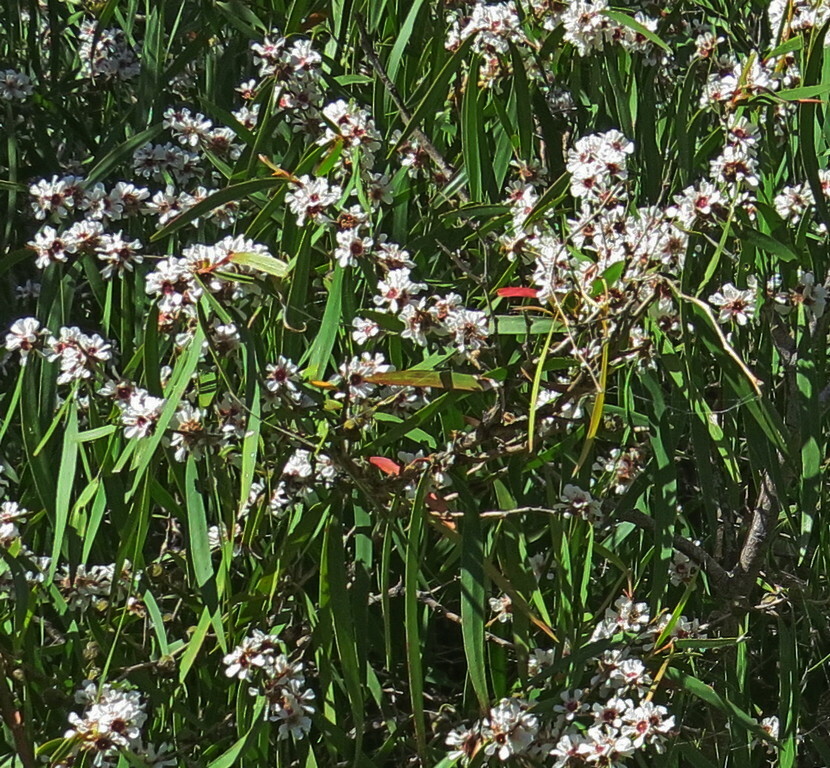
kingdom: Plantae
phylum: Tracheophyta
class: Magnoliopsida
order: Myrtales
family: Myrtaceae
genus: Agonis
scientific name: Agonis flexuosa
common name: Willow myrtle
